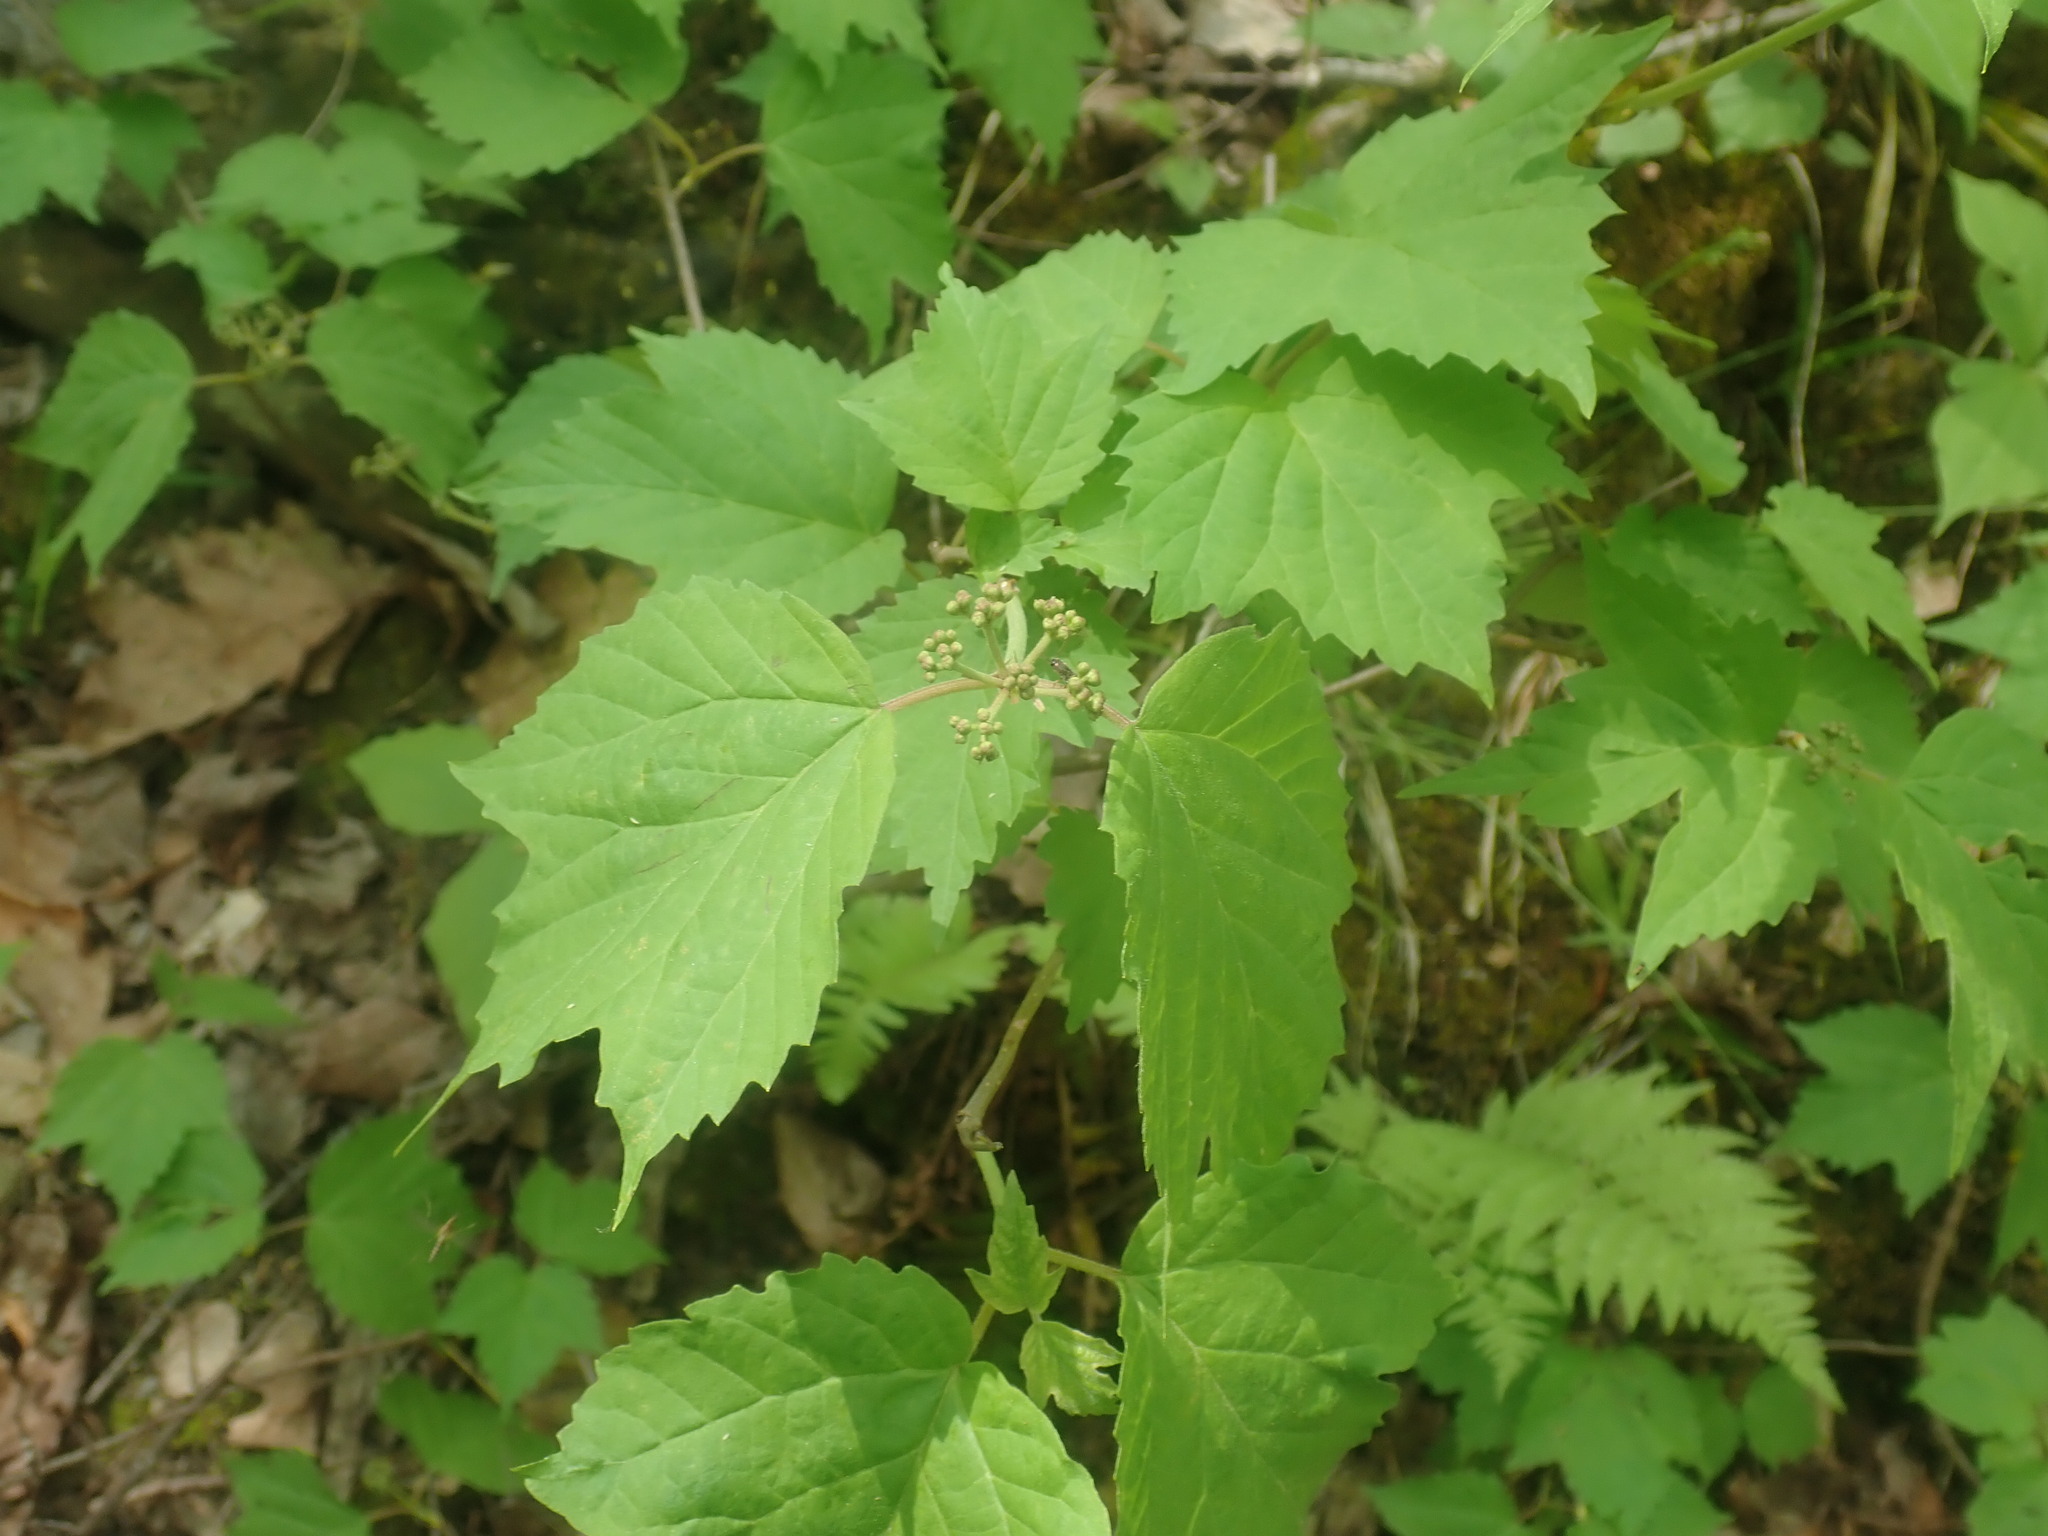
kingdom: Plantae
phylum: Tracheophyta
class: Magnoliopsida
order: Dipsacales
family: Viburnaceae
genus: Viburnum
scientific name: Viburnum acerifolium
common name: Dockmackie
